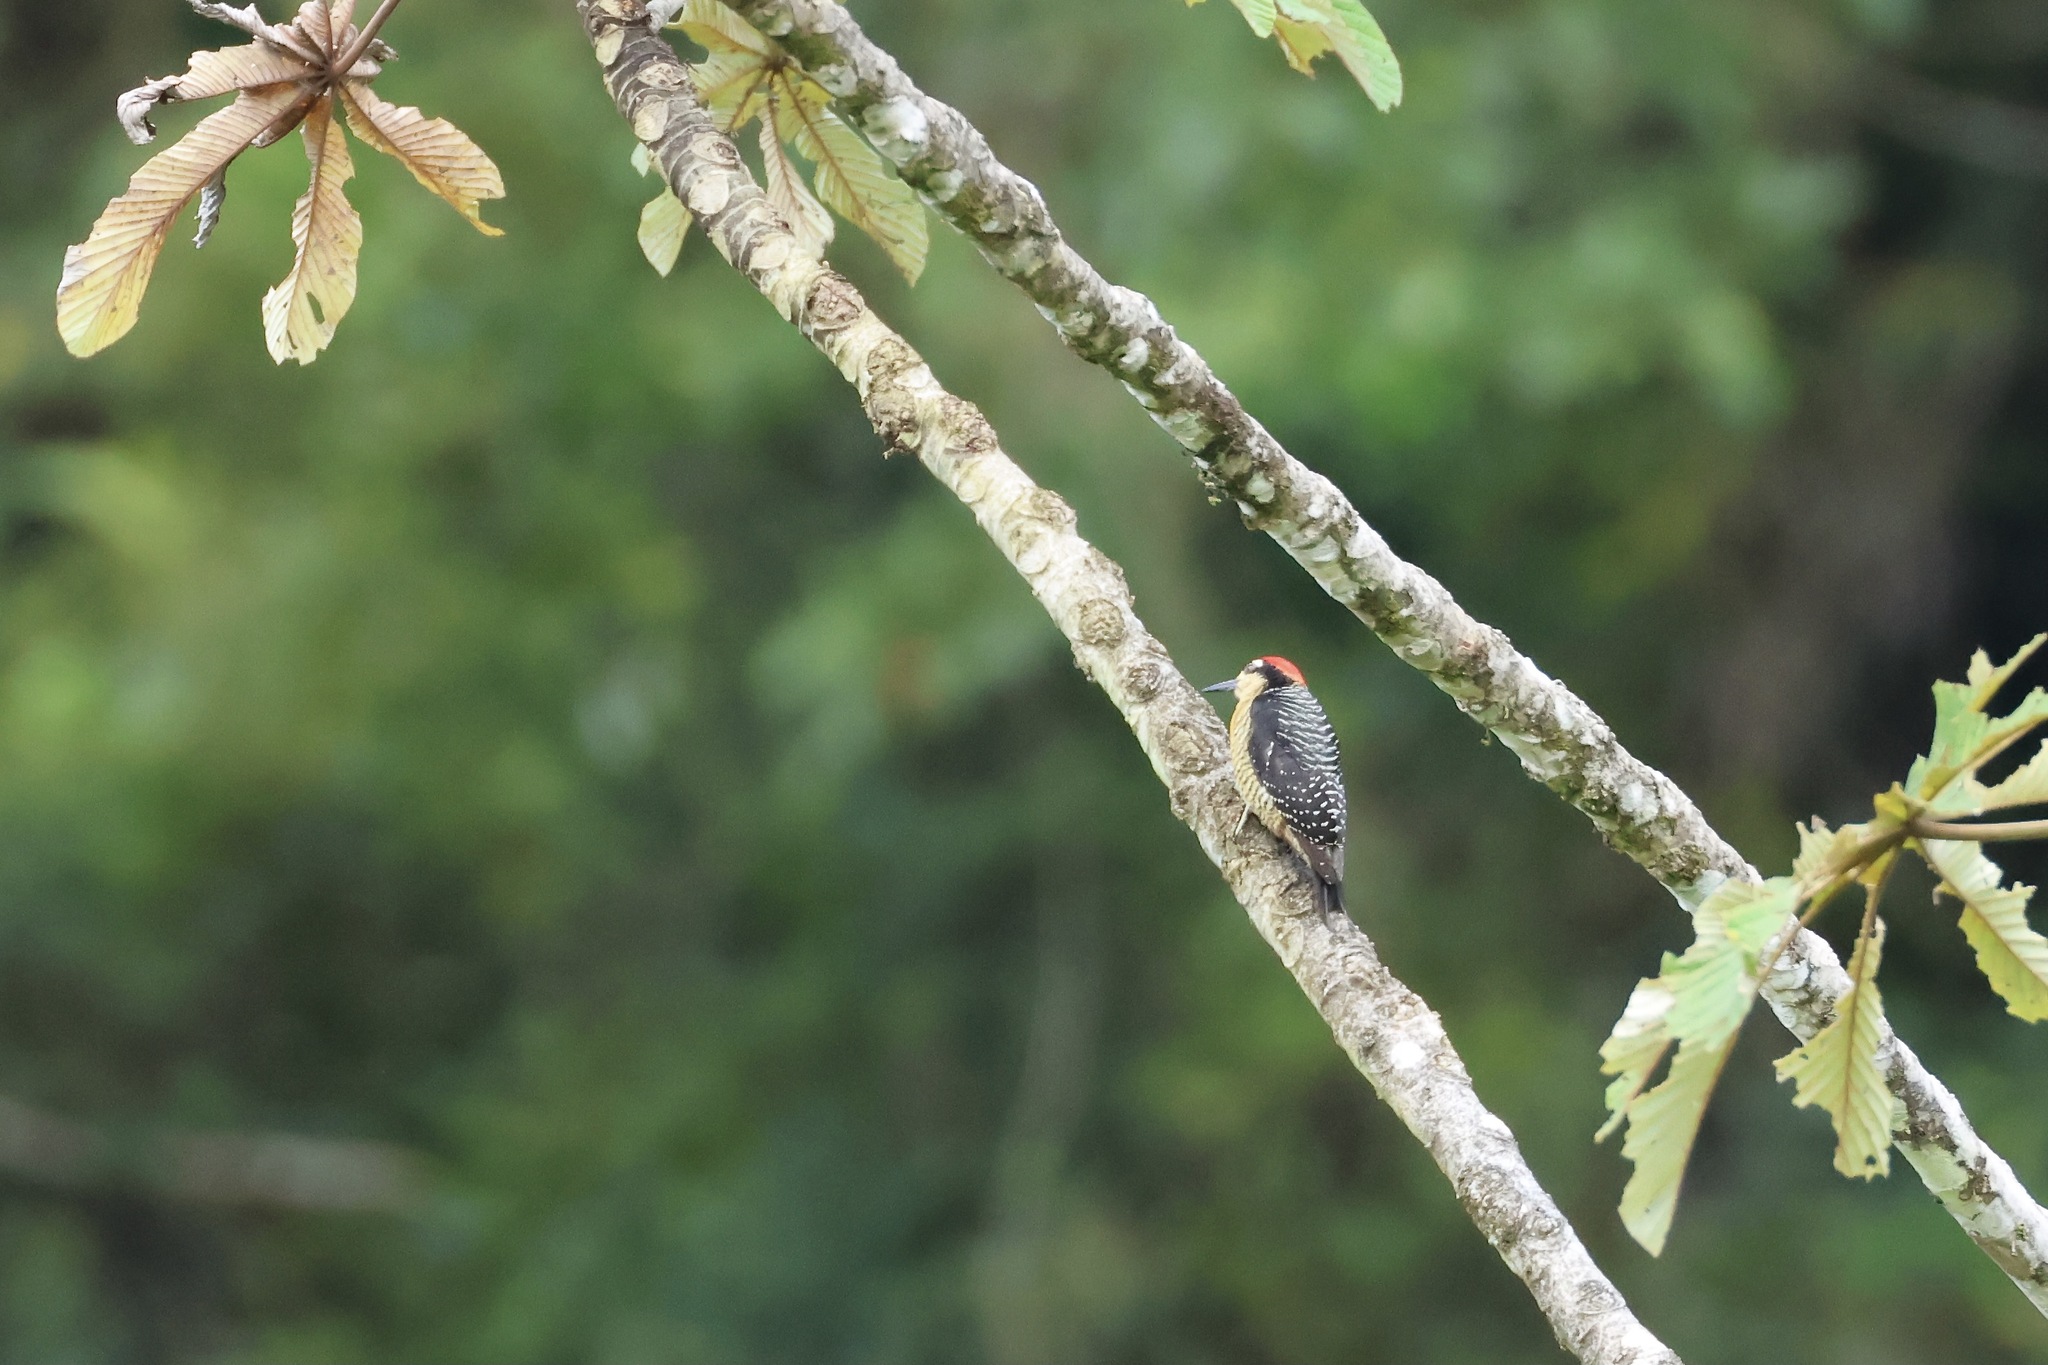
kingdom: Animalia
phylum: Chordata
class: Aves
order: Piciformes
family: Picidae
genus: Melanerpes
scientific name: Melanerpes pucherani
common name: Black-cheeked woodpecker
